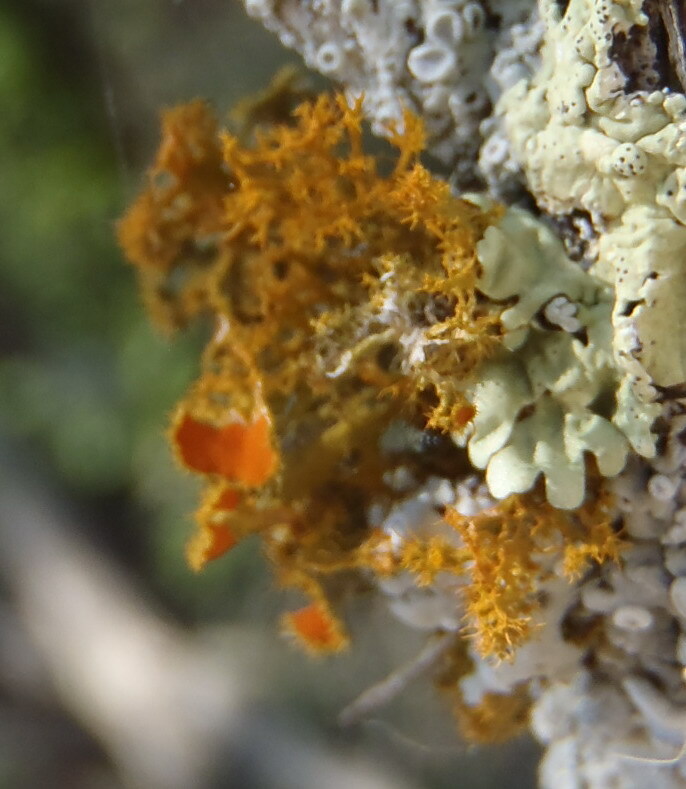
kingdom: Fungi
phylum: Ascomycota
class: Lecanoromycetes
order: Teloschistales
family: Teloschistaceae
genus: Niorma
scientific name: Niorma chrysophthalma
